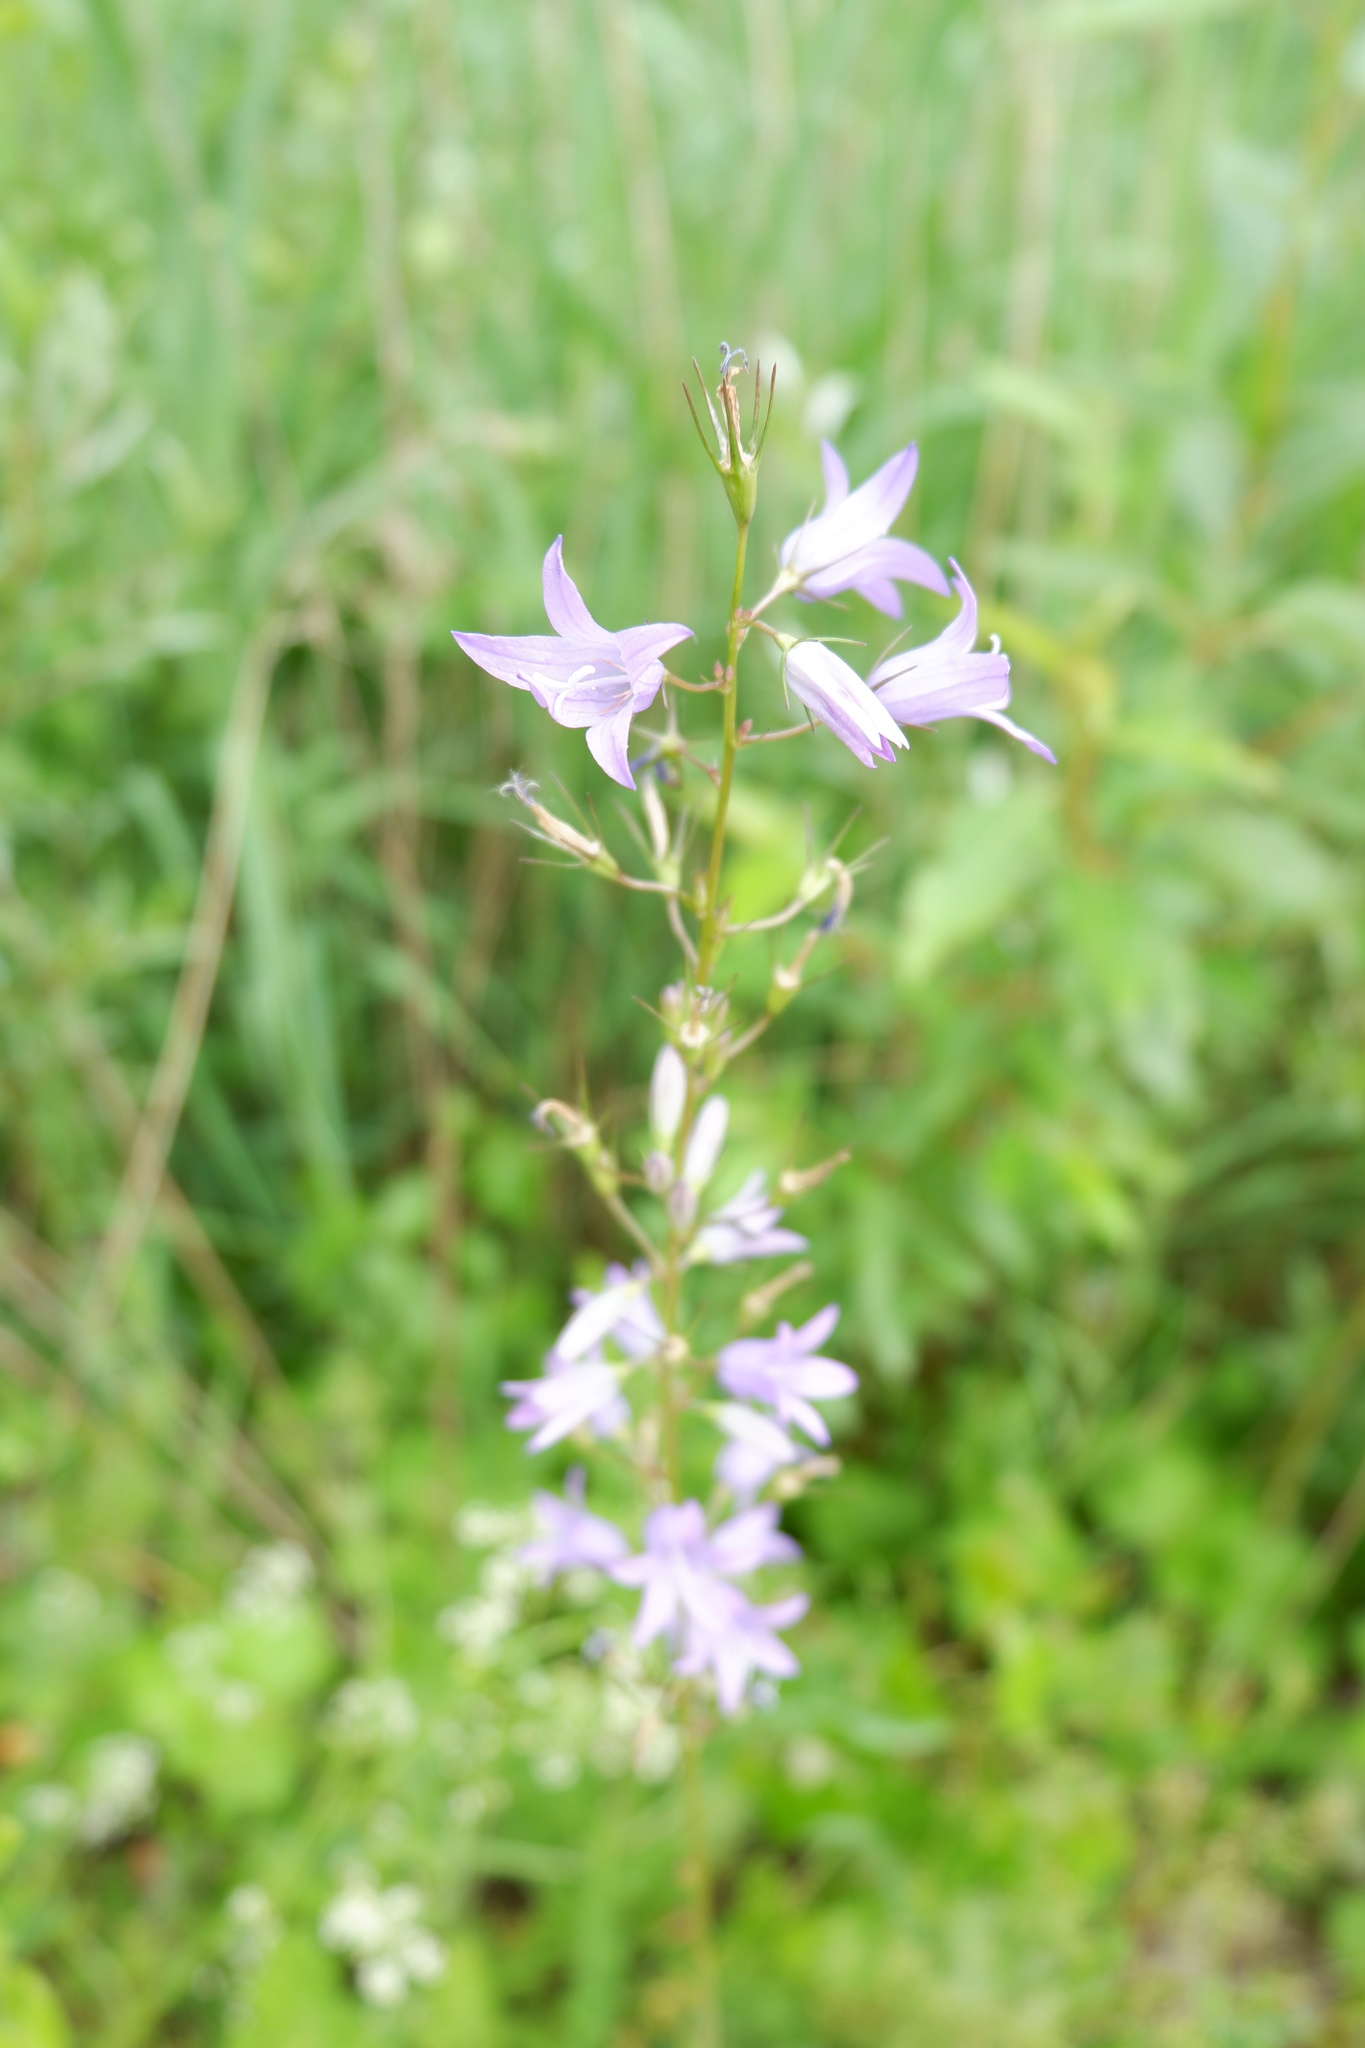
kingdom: Plantae
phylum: Tracheophyta
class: Magnoliopsida
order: Asterales
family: Campanulaceae
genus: Campanula
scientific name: Campanula rapunculus
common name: Rampion bellflower
